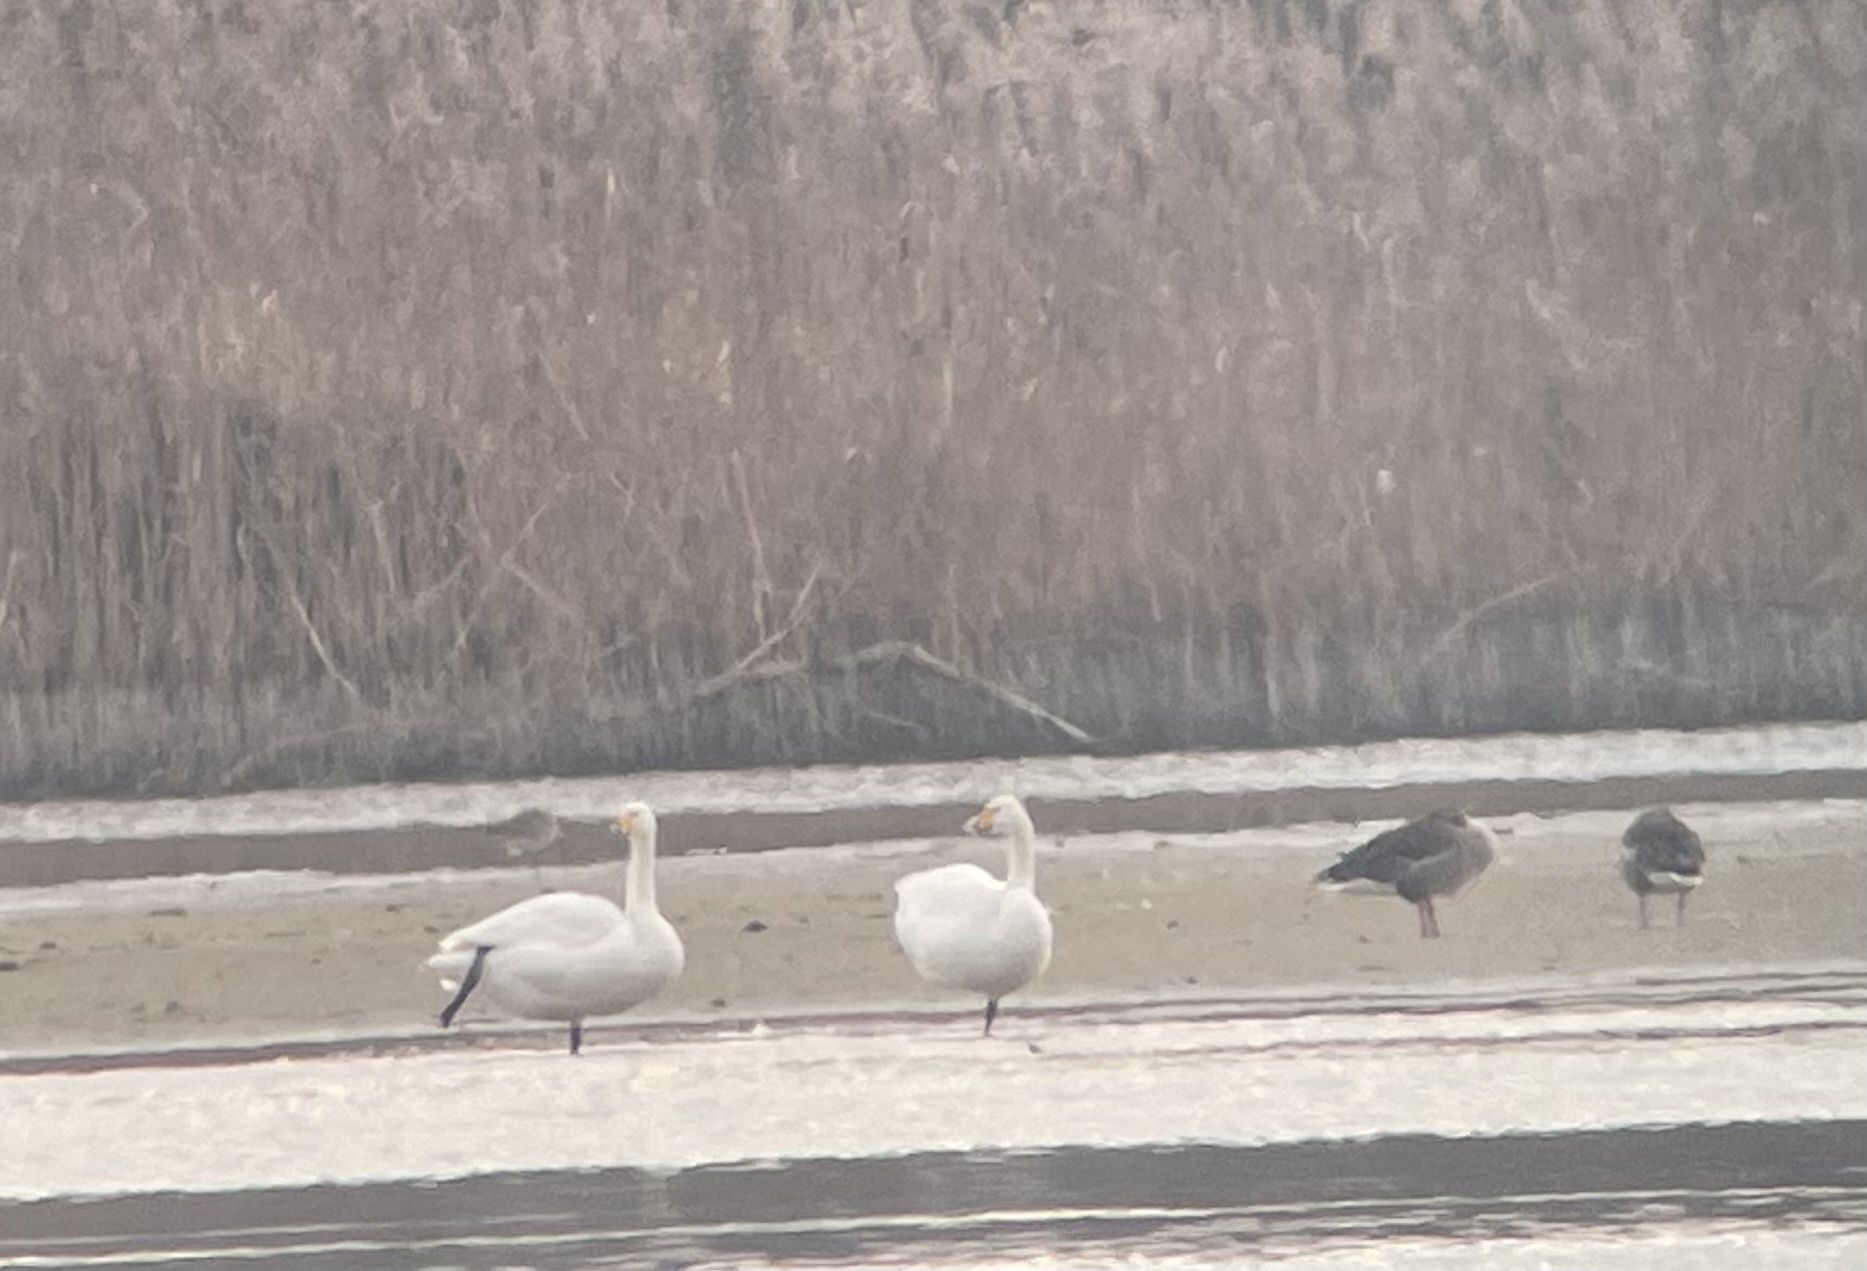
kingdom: Animalia
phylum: Chordata
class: Aves
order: Anseriformes
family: Anatidae
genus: Cygnus
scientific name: Cygnus cygnus
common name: Whooper swan
